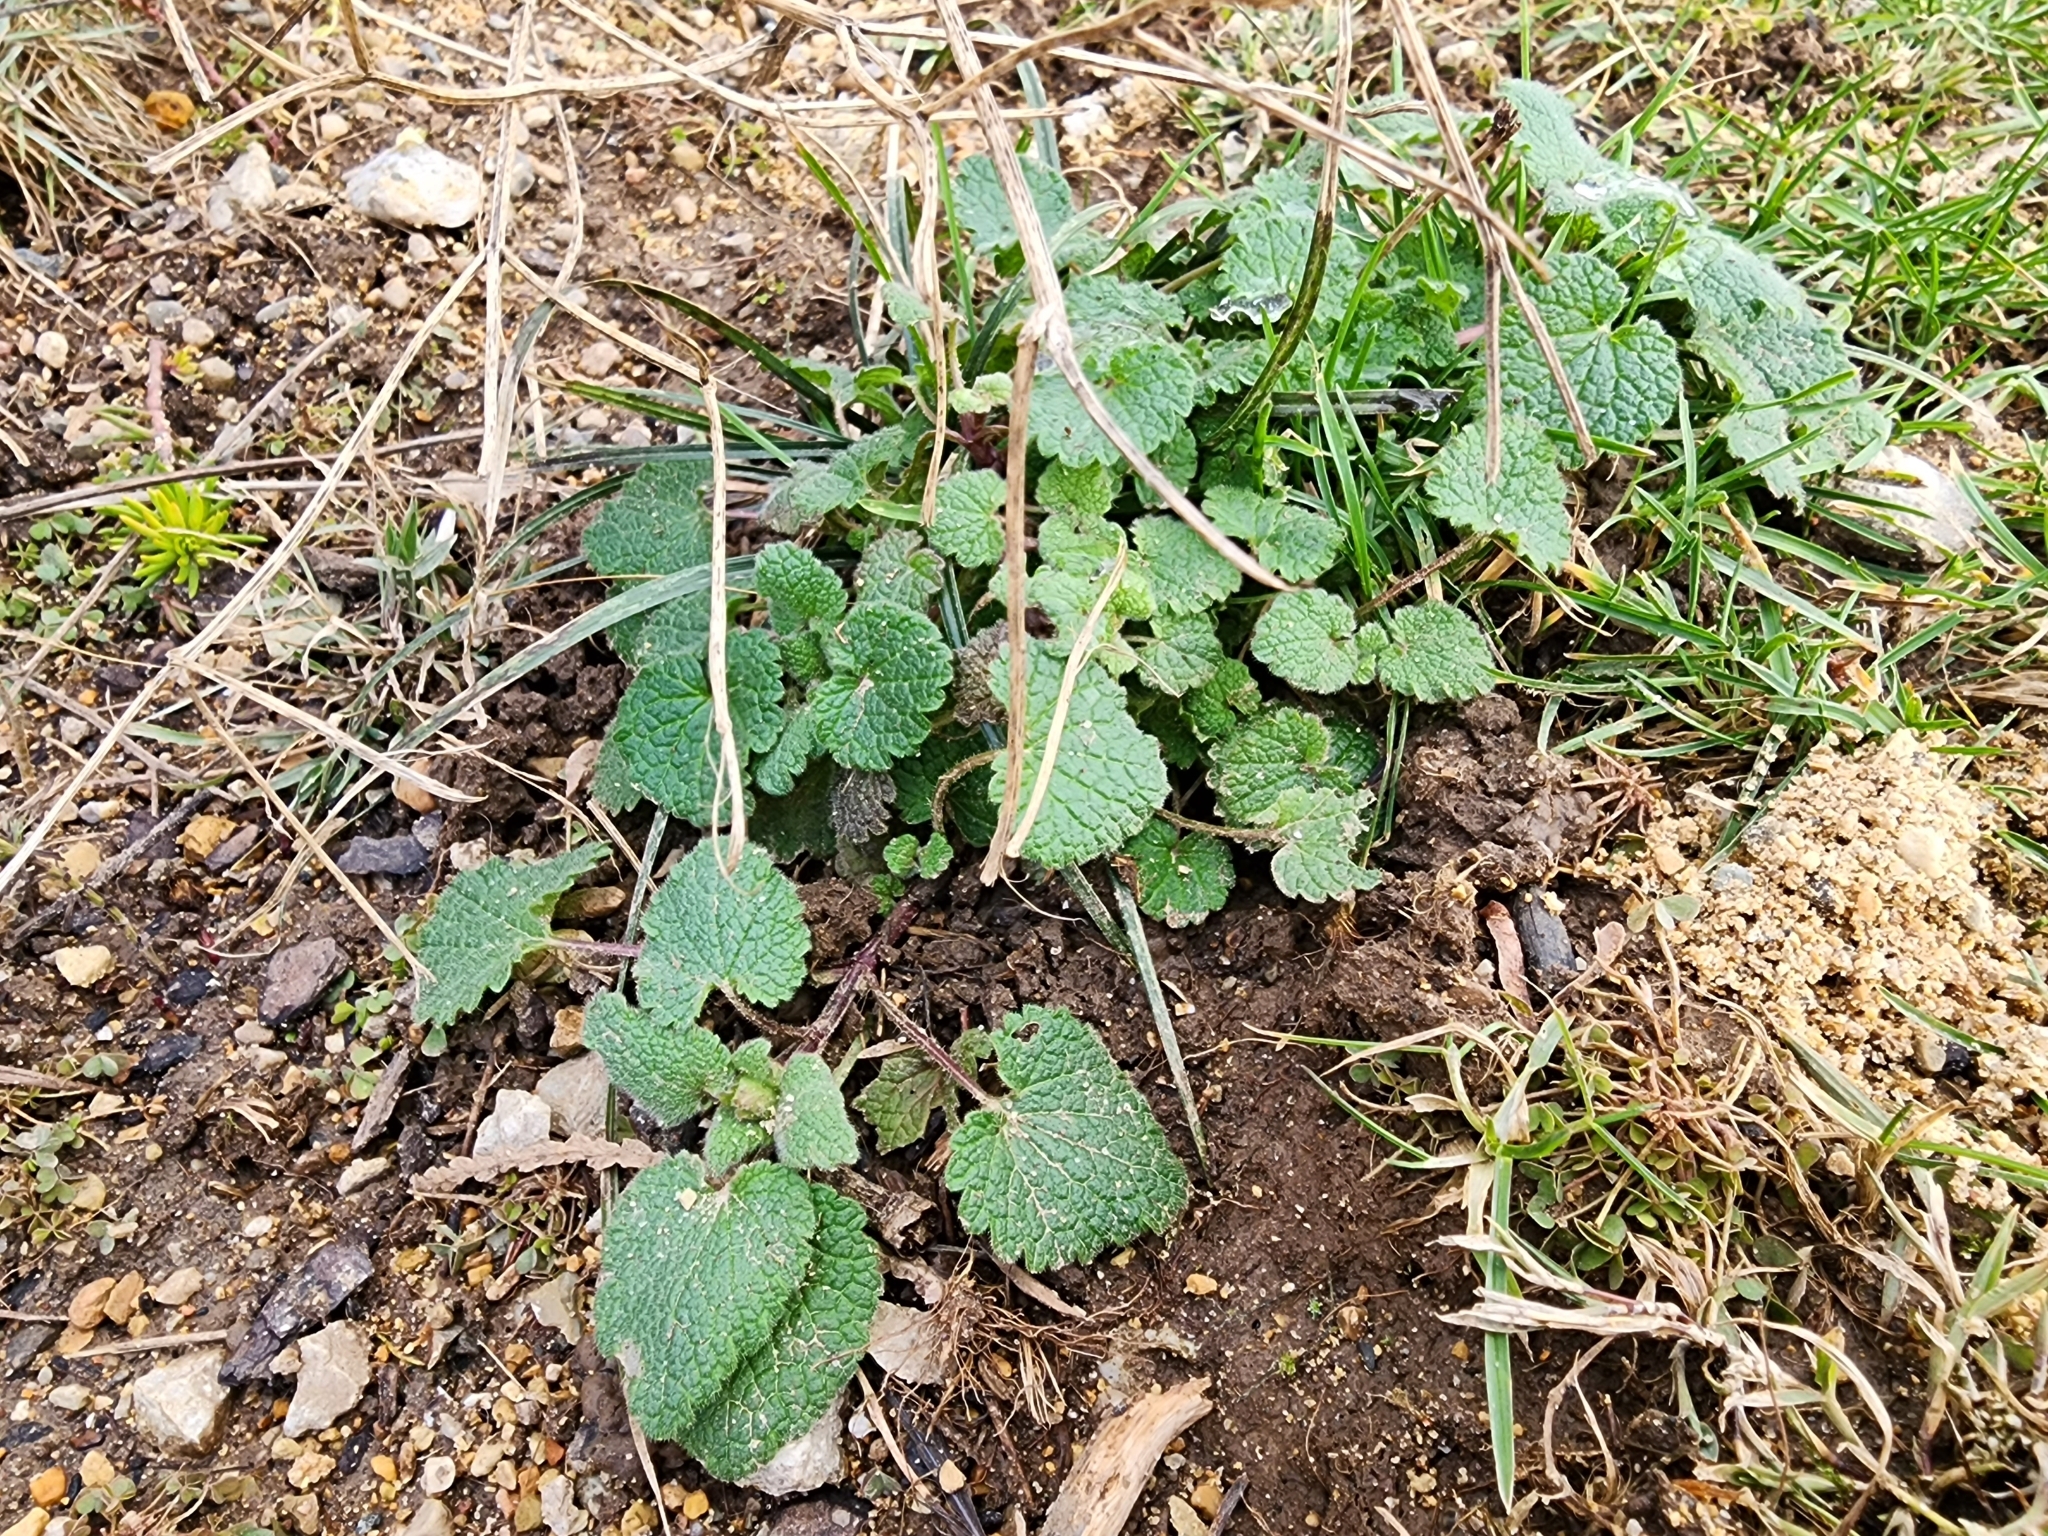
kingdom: Plantae
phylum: Tracheophyta
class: Magnoliopsida
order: Lamiales
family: Lamiaceae
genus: Lamium
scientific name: Lamium purpureum
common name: Red dead-nettle
